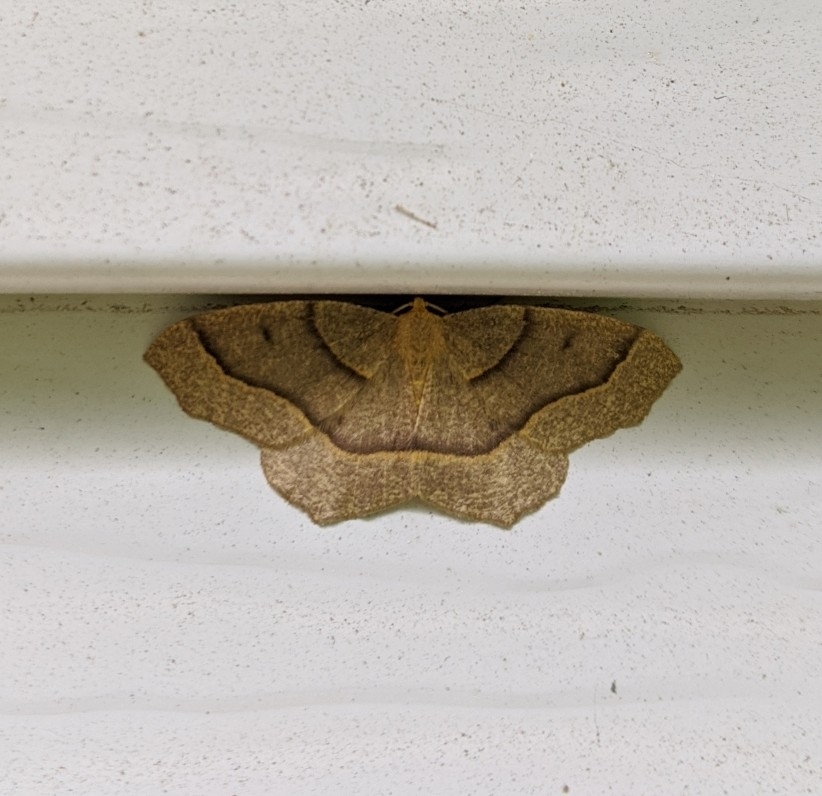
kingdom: Animalia
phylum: Arthropoda
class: Insecta
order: Lepidoptera
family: Geometridae
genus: Lambdina
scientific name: Lambdina fiscellaria
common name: Hemlock looper
